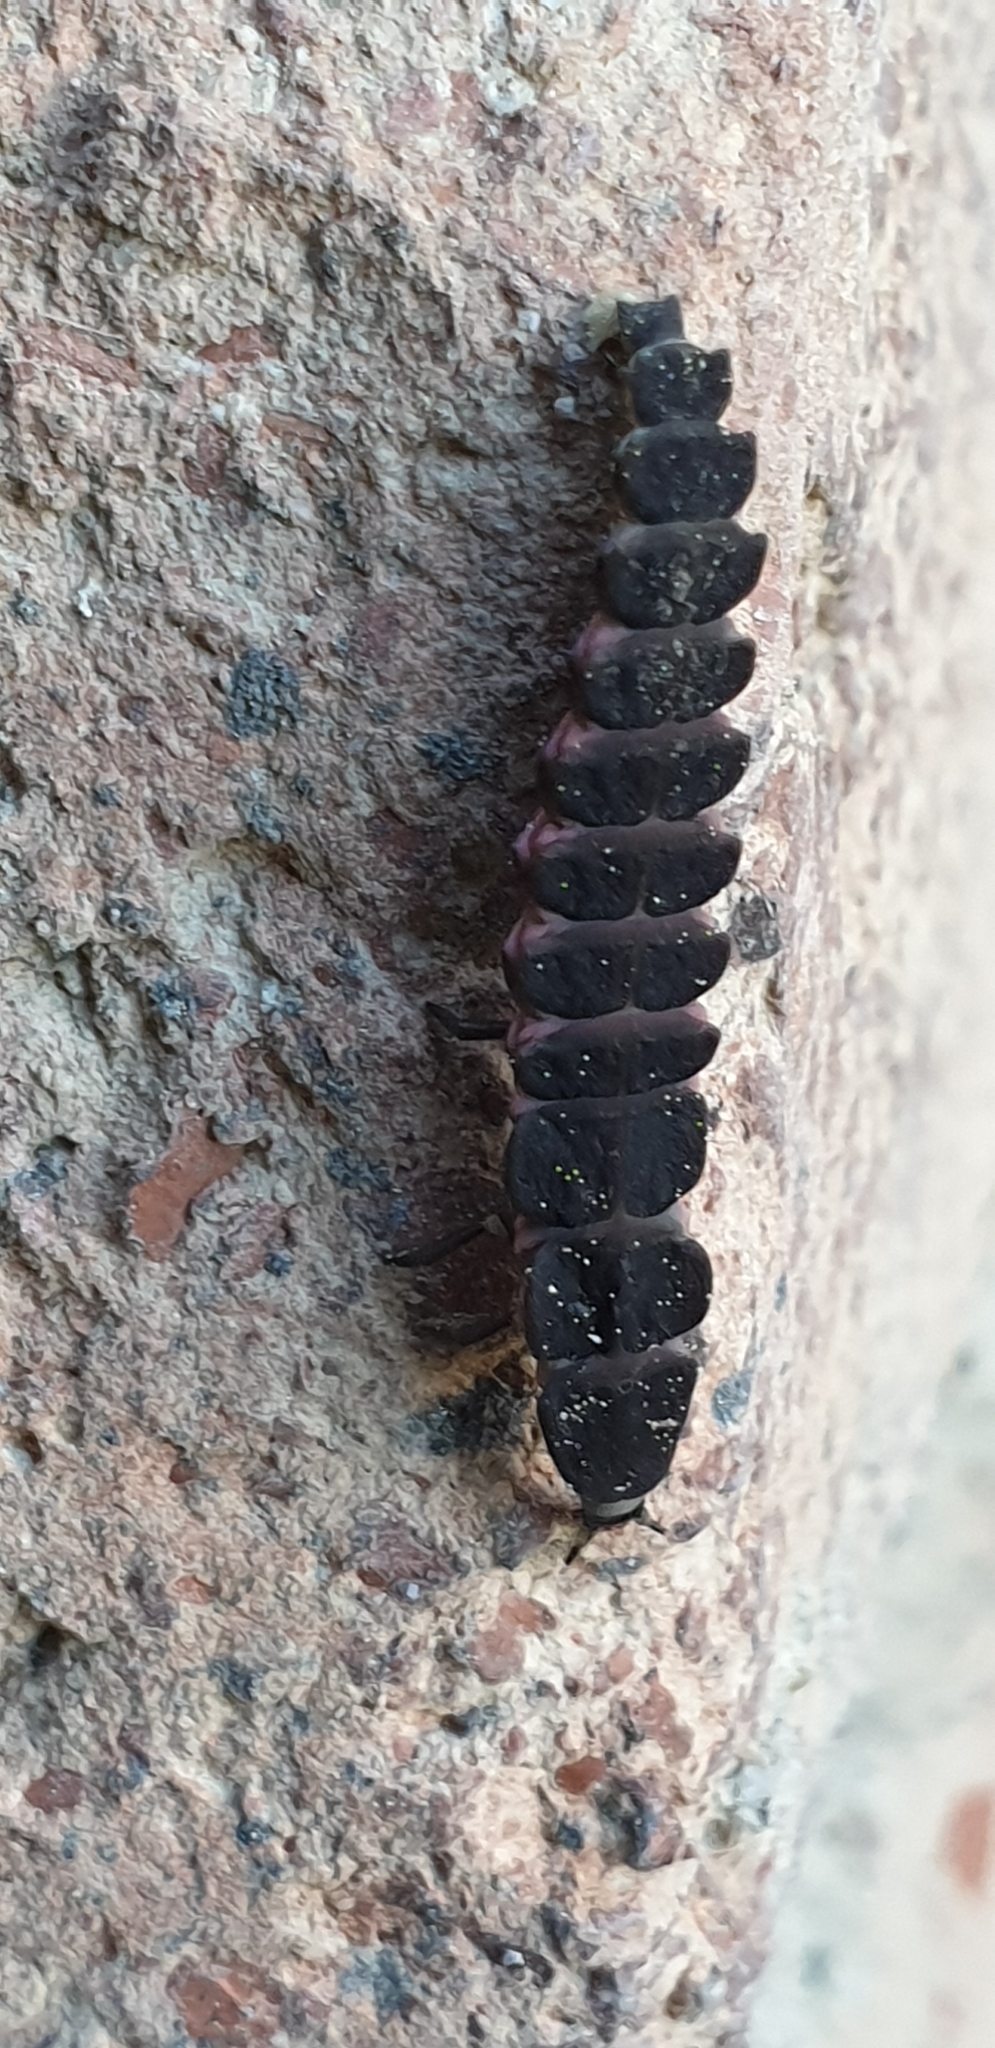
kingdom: Animalia
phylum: Arthropoda
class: Insecta
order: Coleoptera
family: Lampyridae
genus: Nyctophila
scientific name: Nyctophila reichii
